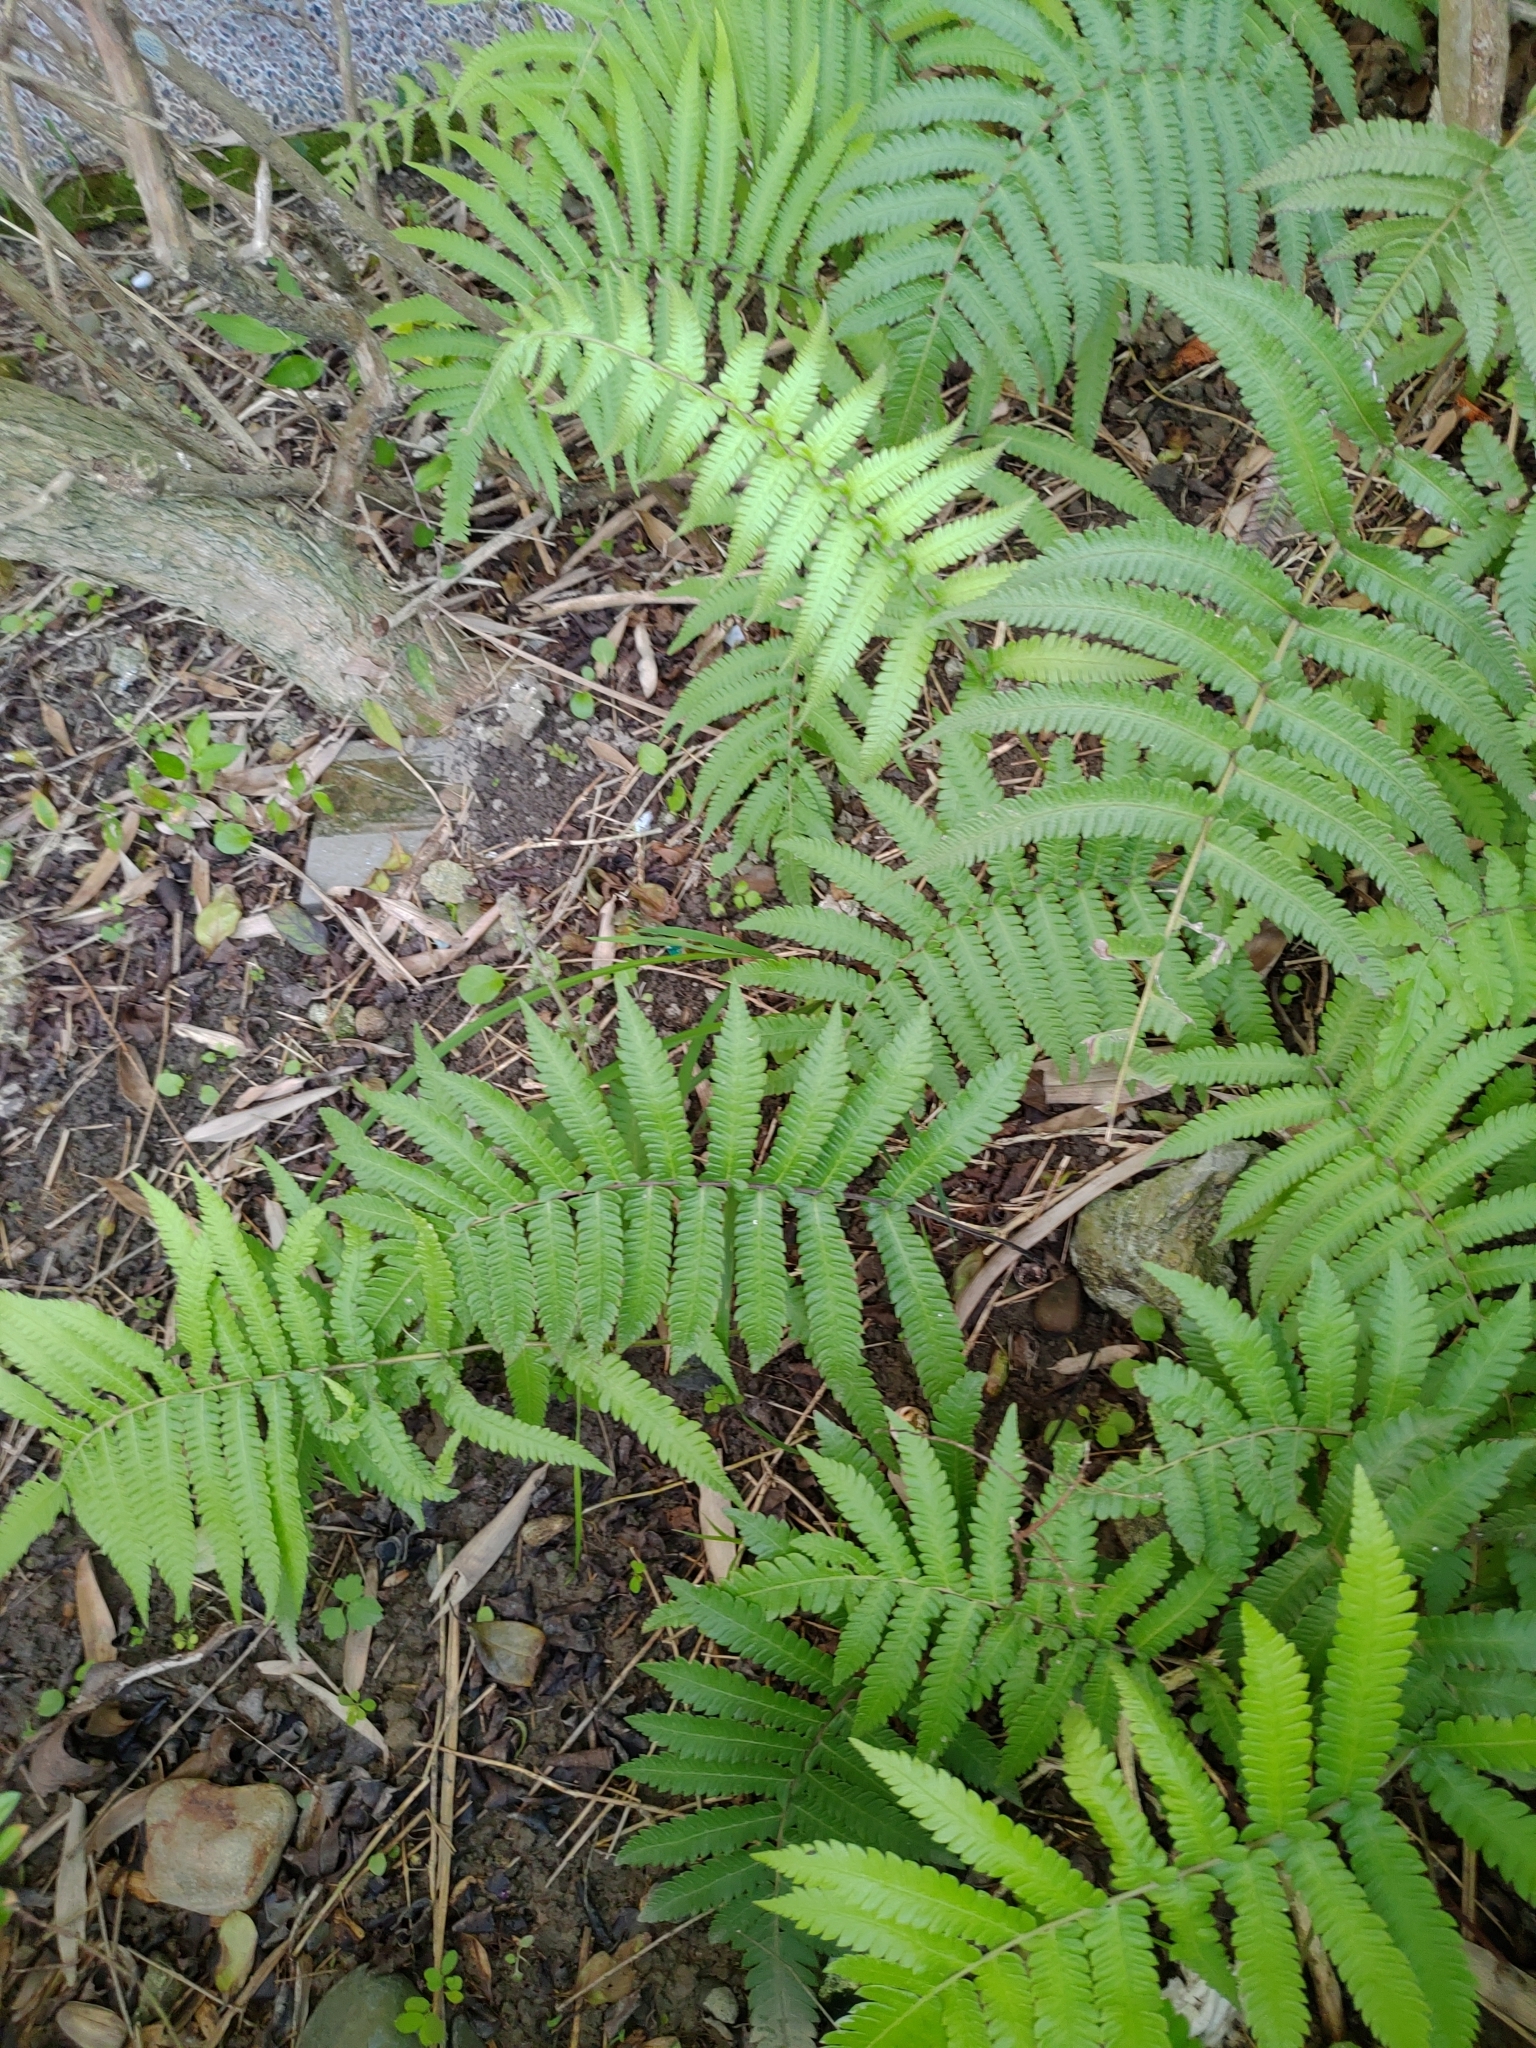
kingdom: Plantae
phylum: Tracheophyta
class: Polypodiopsida
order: Polypodiales
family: Thelypteridaceae
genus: Christella
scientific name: Christella acuminata
